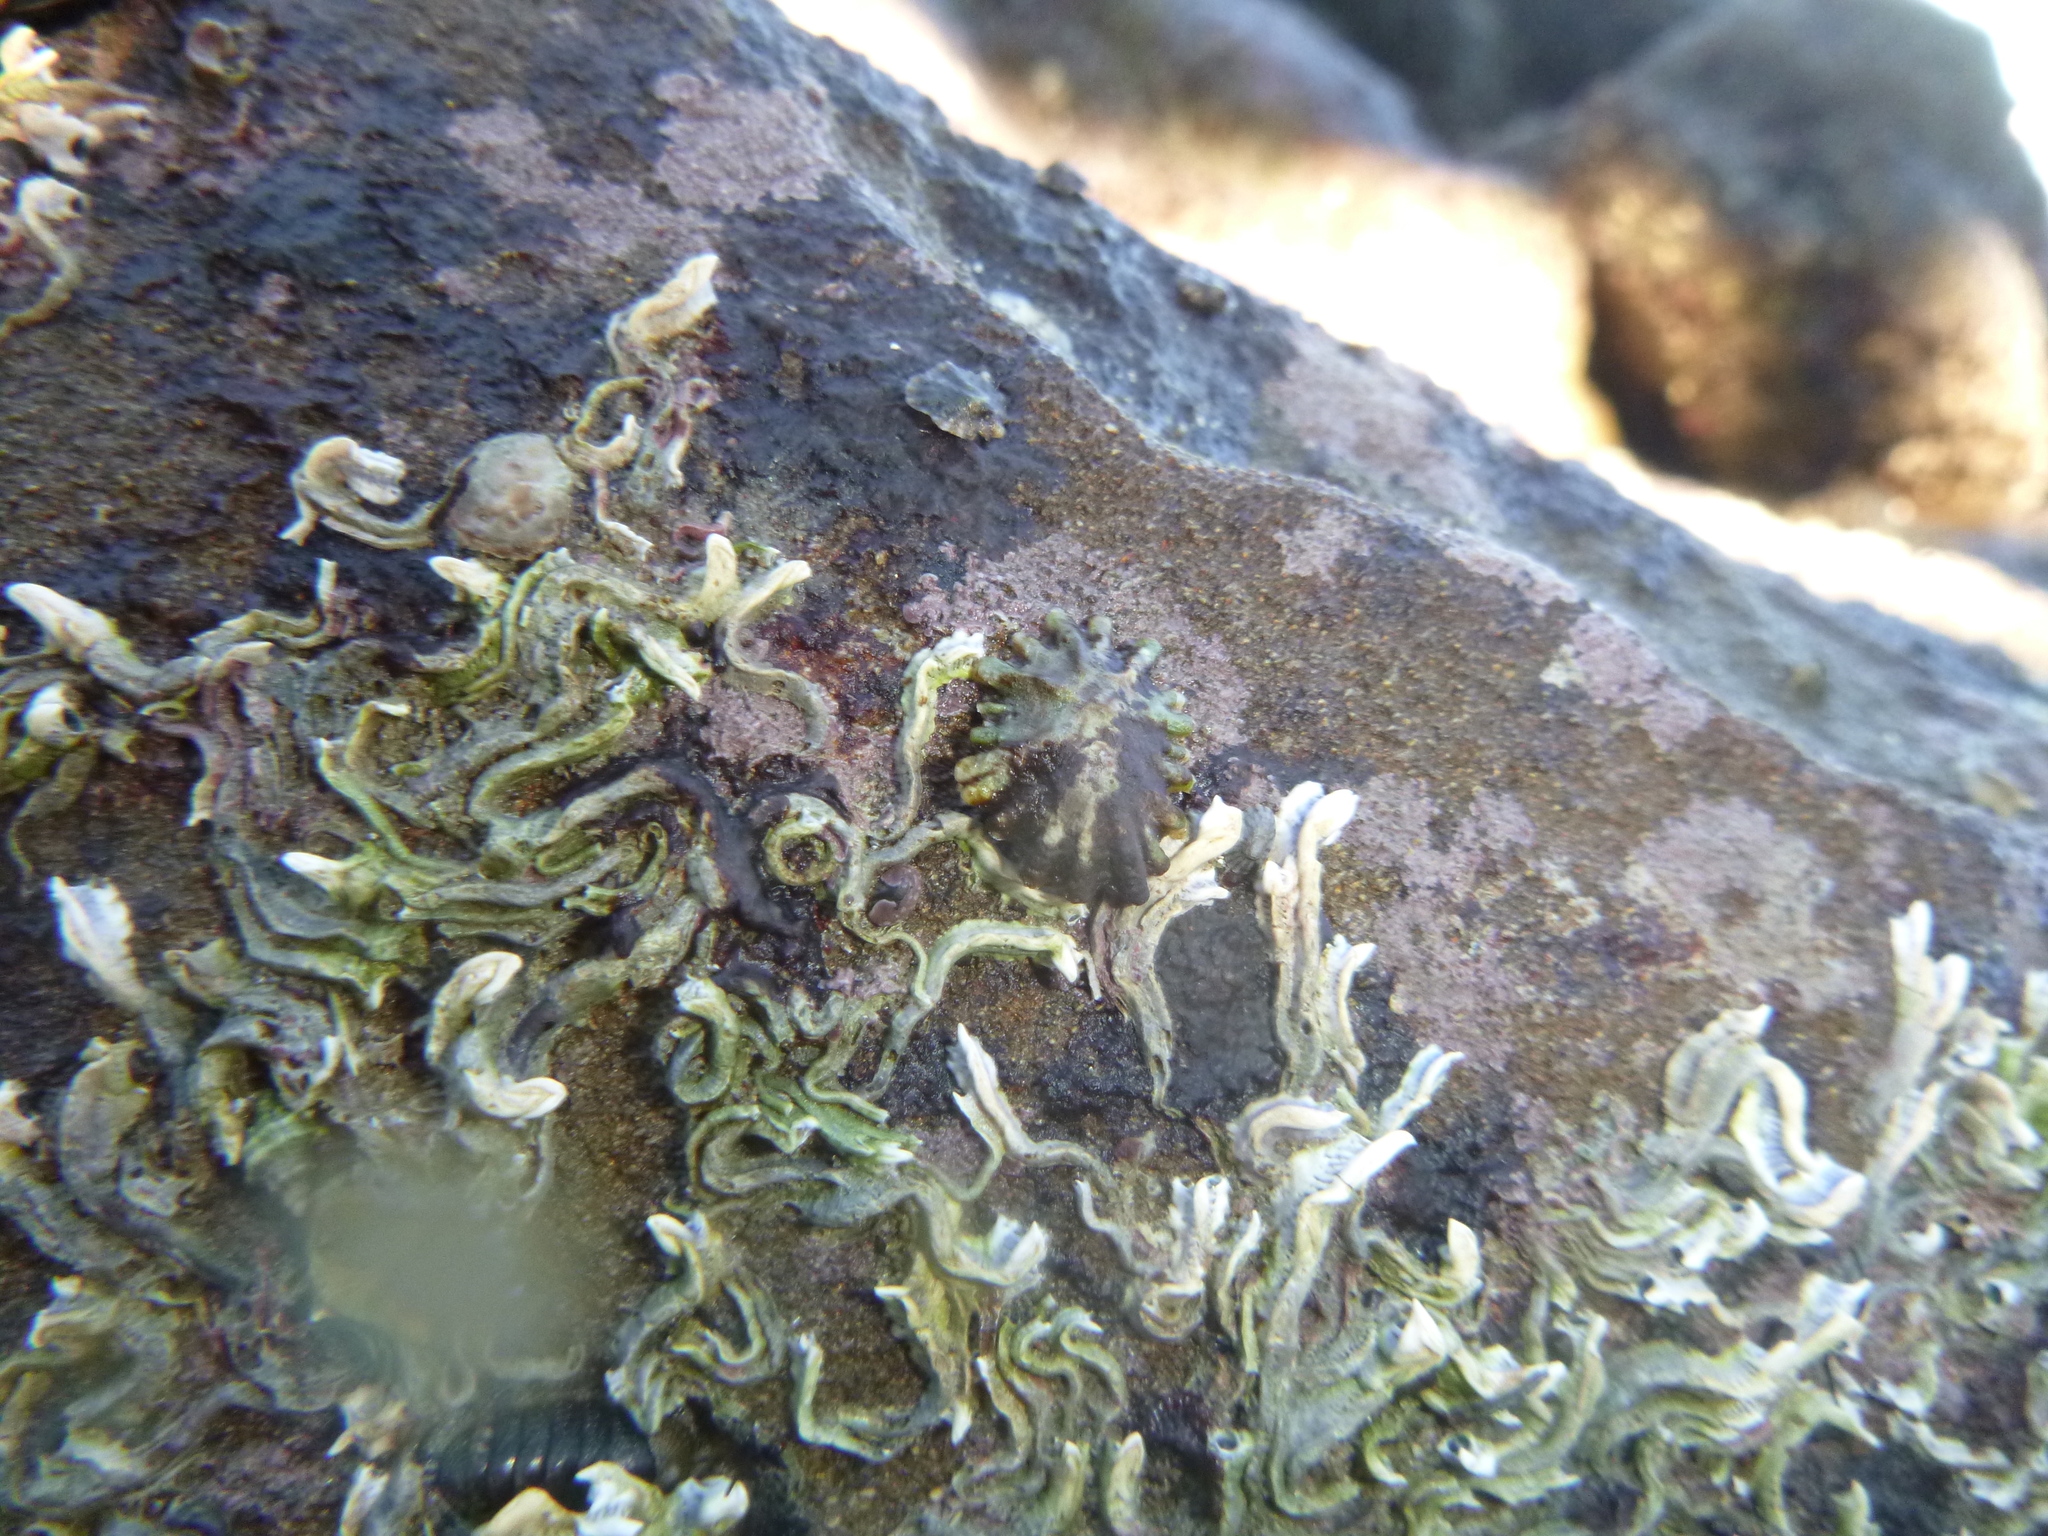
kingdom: Animalia
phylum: Mollusca
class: Gastropoda
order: Siphonariida
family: Siphonariidae
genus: Siphonaria
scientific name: Siphonaria australis
